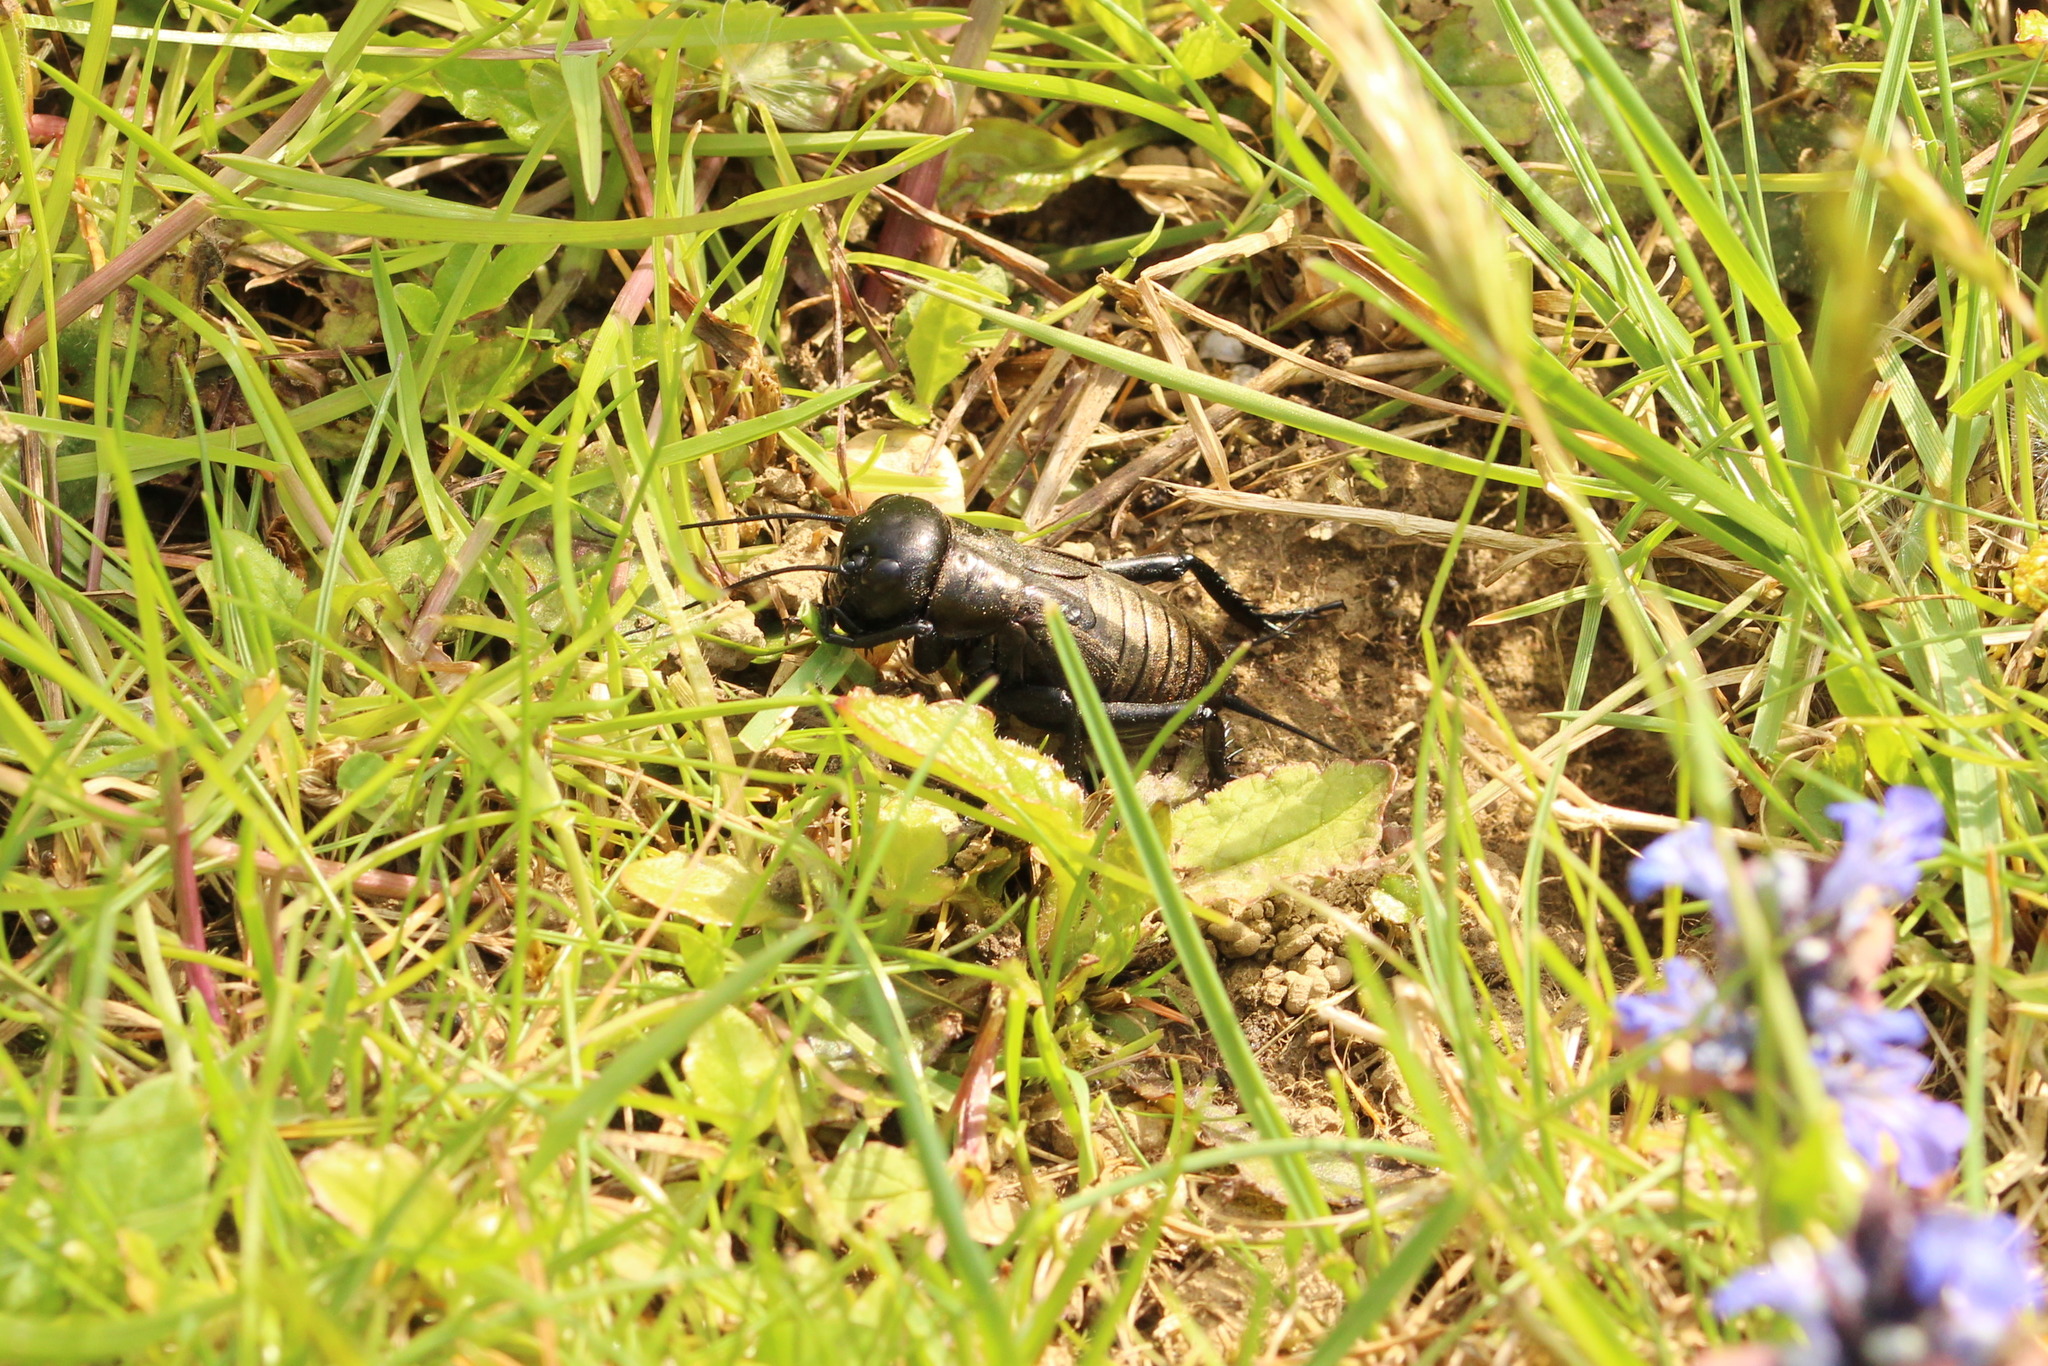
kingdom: Animalia
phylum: Arthropoda
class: Insecta
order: Orthoptera
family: Gryllidae
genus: Gryllus
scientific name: Gryllus campestris
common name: Field cricket
